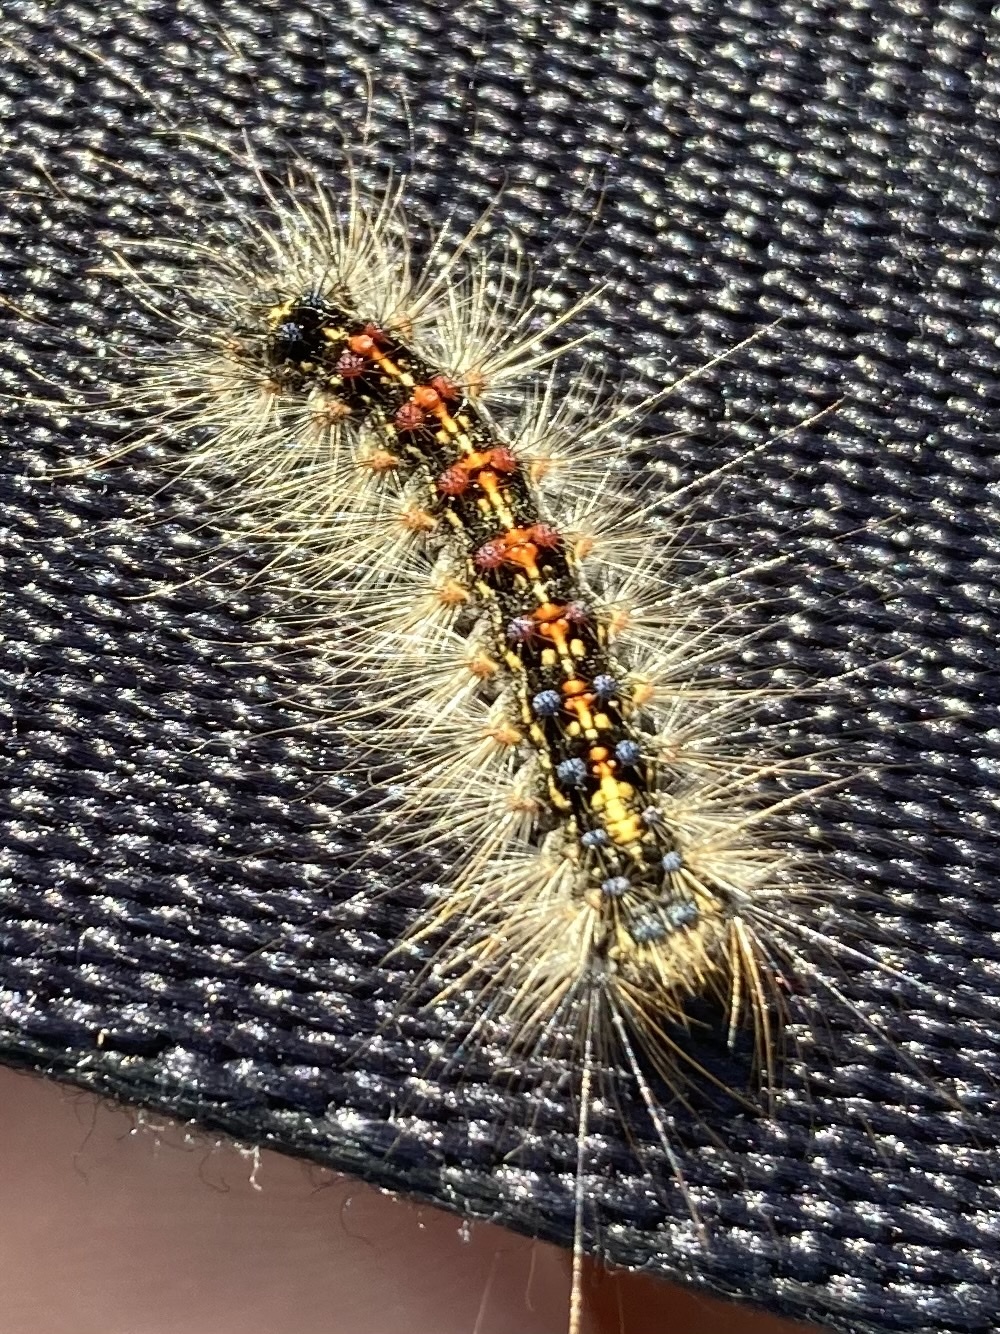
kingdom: Animalia
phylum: Arthropoda
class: Insecta
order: Lepidoptera
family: Erebidae
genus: Lymantria
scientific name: Lymantria dispar
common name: Gypsy moth
